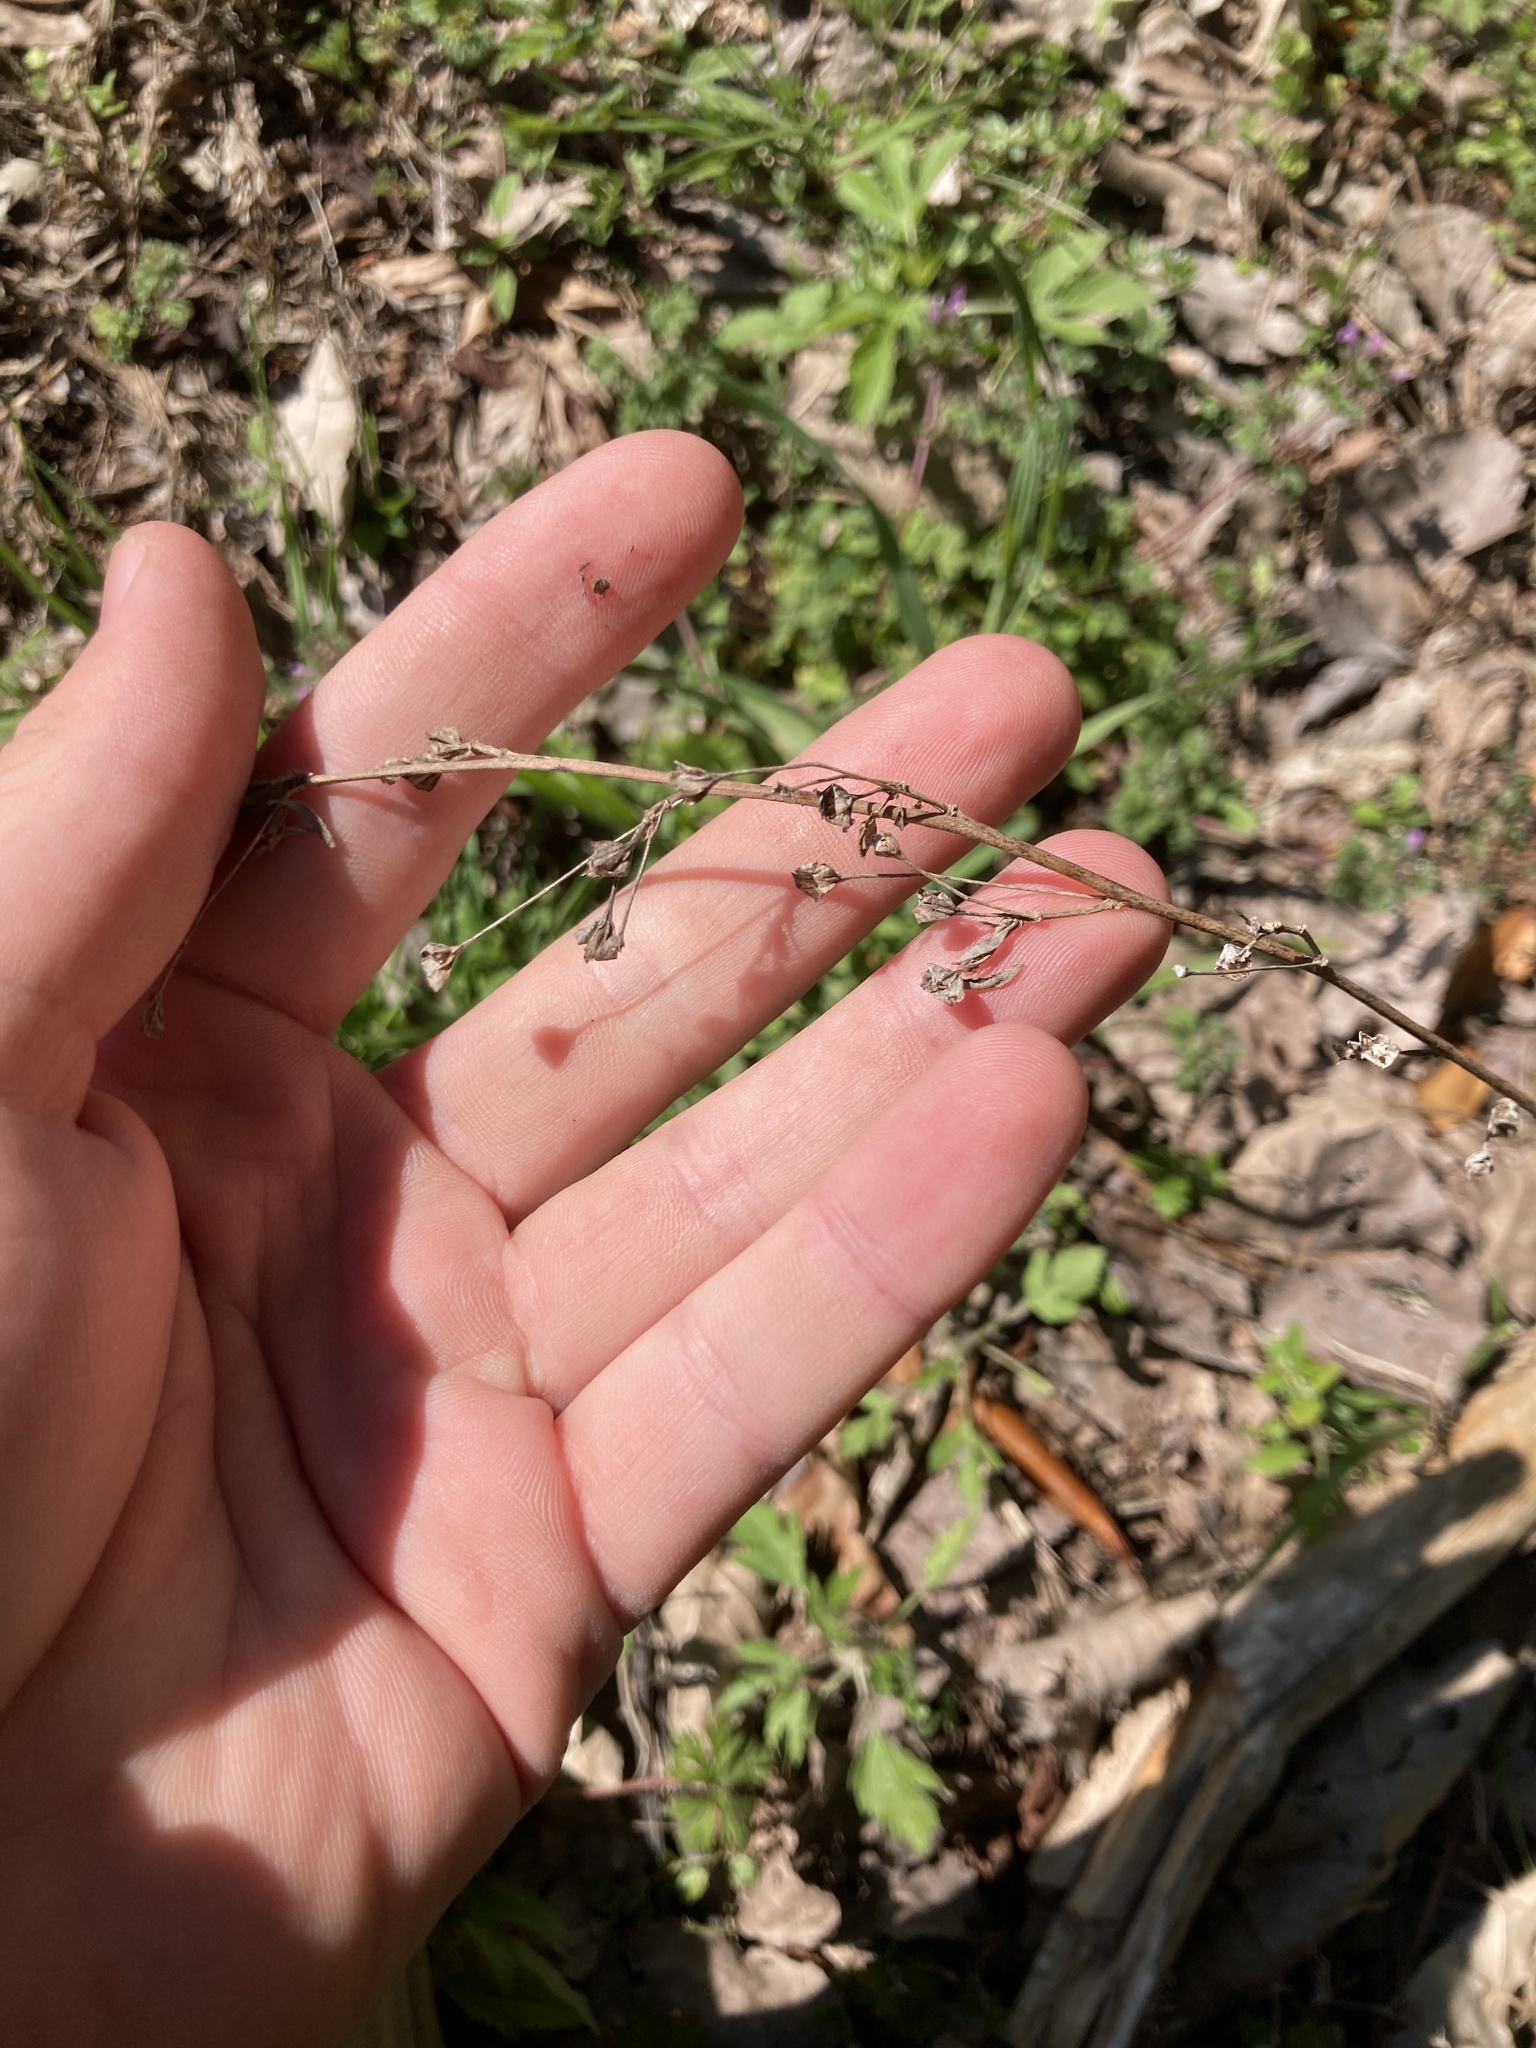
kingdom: Plantae
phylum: Tracheophyta
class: Magnoliopsida
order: Malvales
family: Malvaceae
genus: Sida
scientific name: Sida rhombifolia
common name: Queensland-hemp
